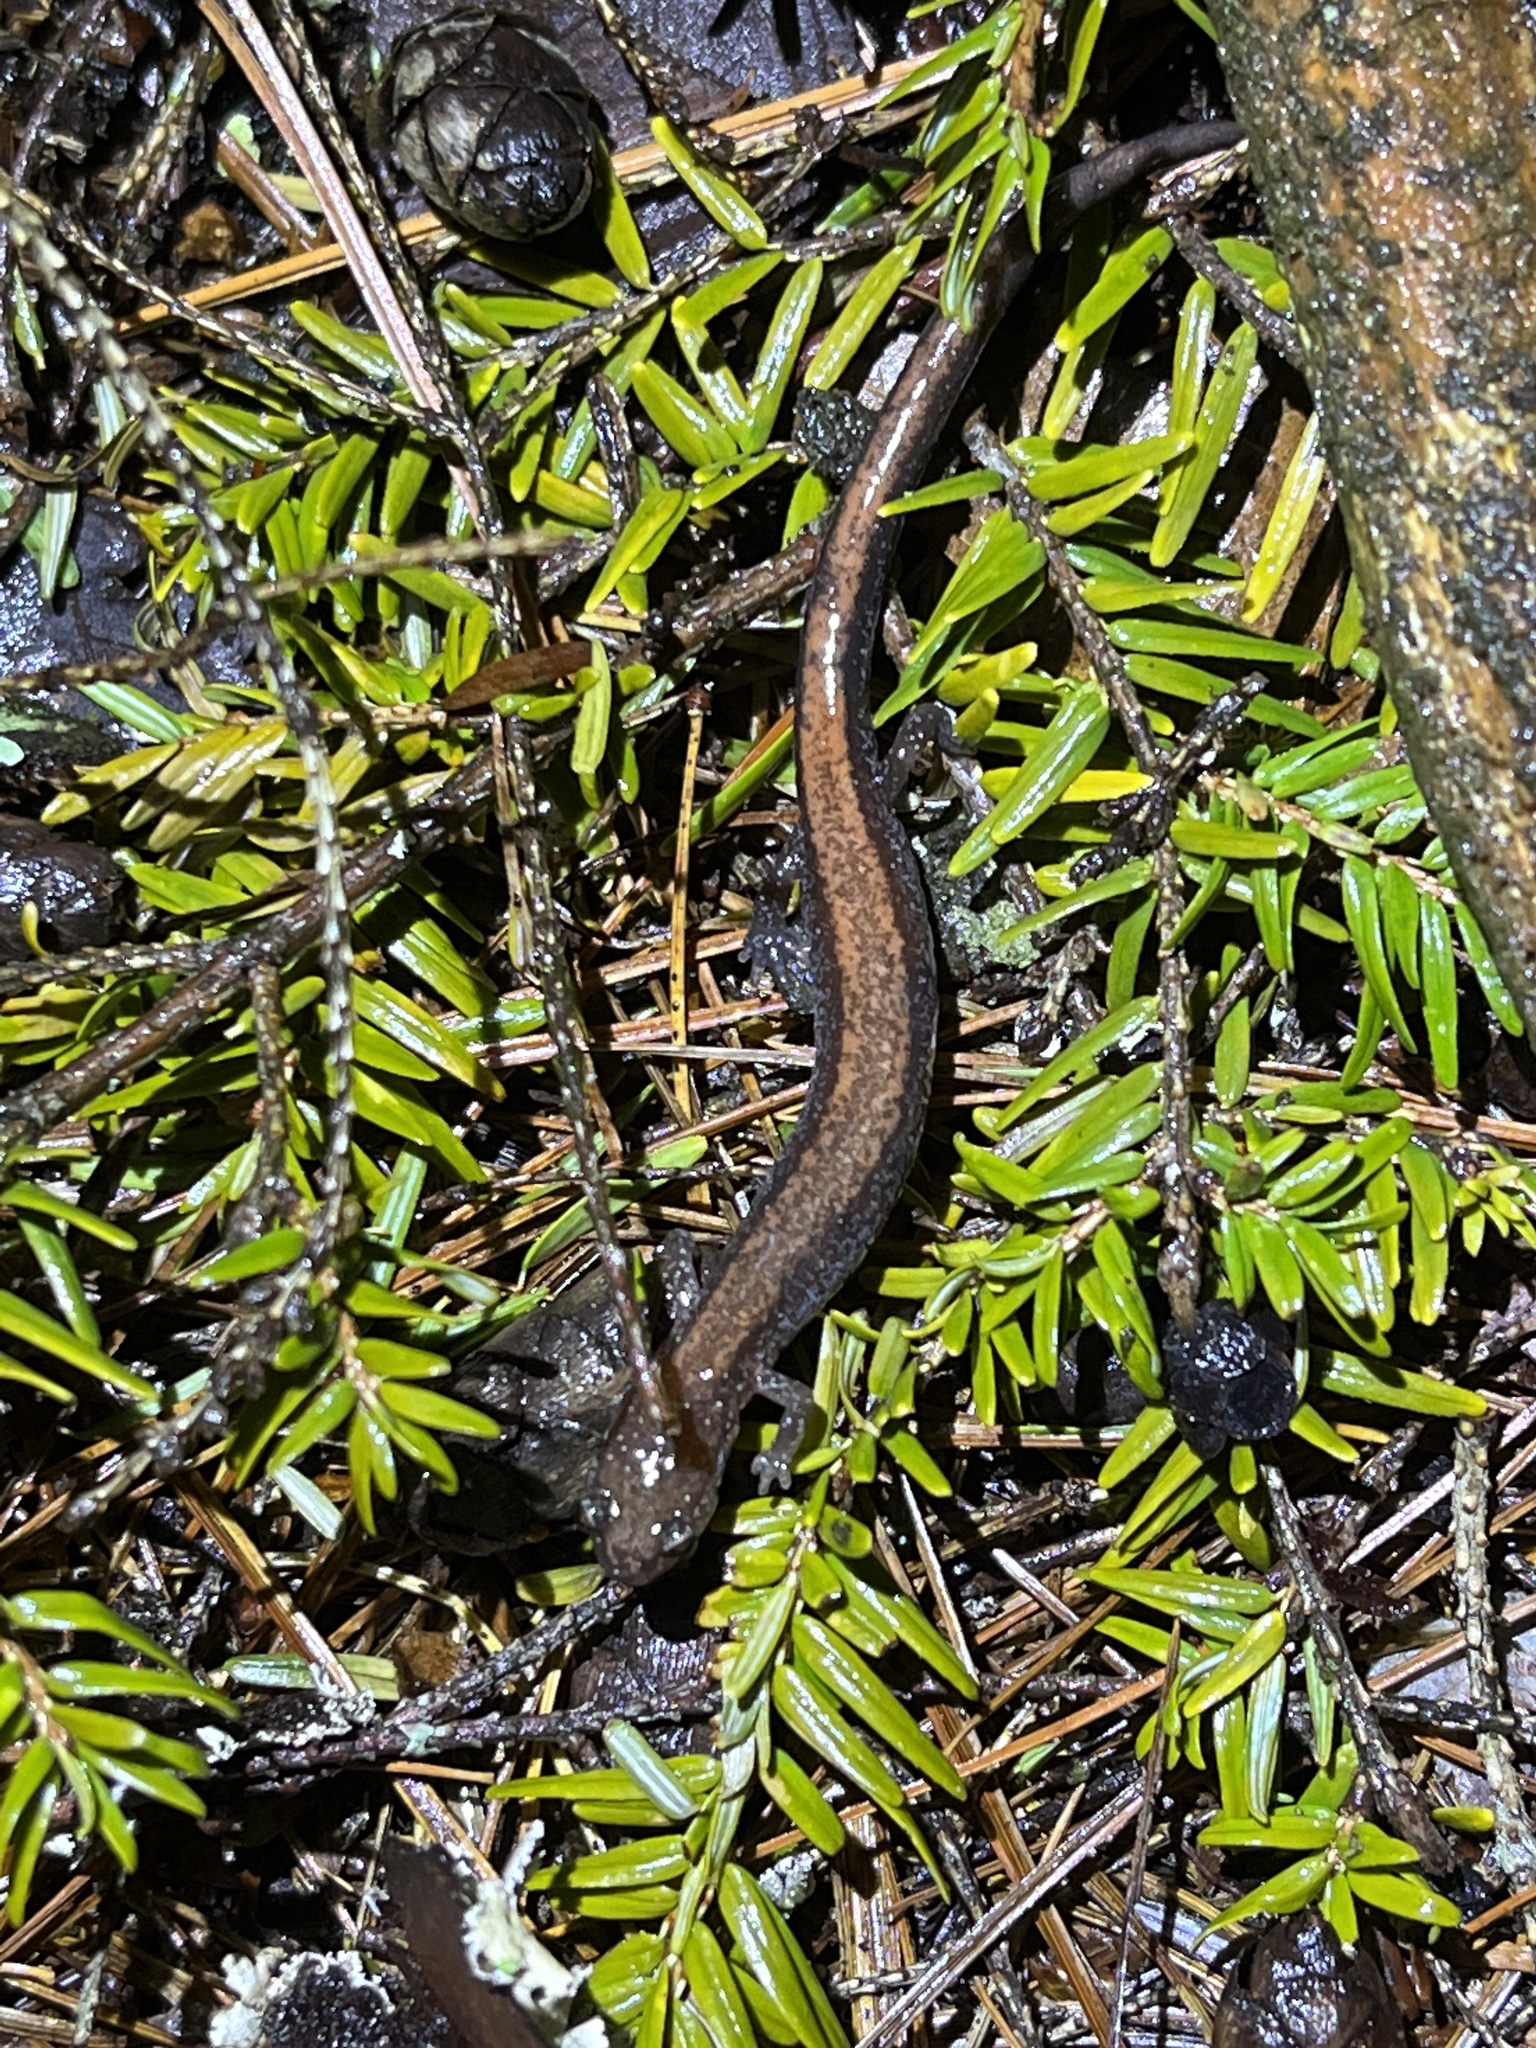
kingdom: Animalia
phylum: Chordata
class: Amphibia
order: Caudata
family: Plethodontidae
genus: Plethodon
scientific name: Plethodon cinereus
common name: Redback salamander
